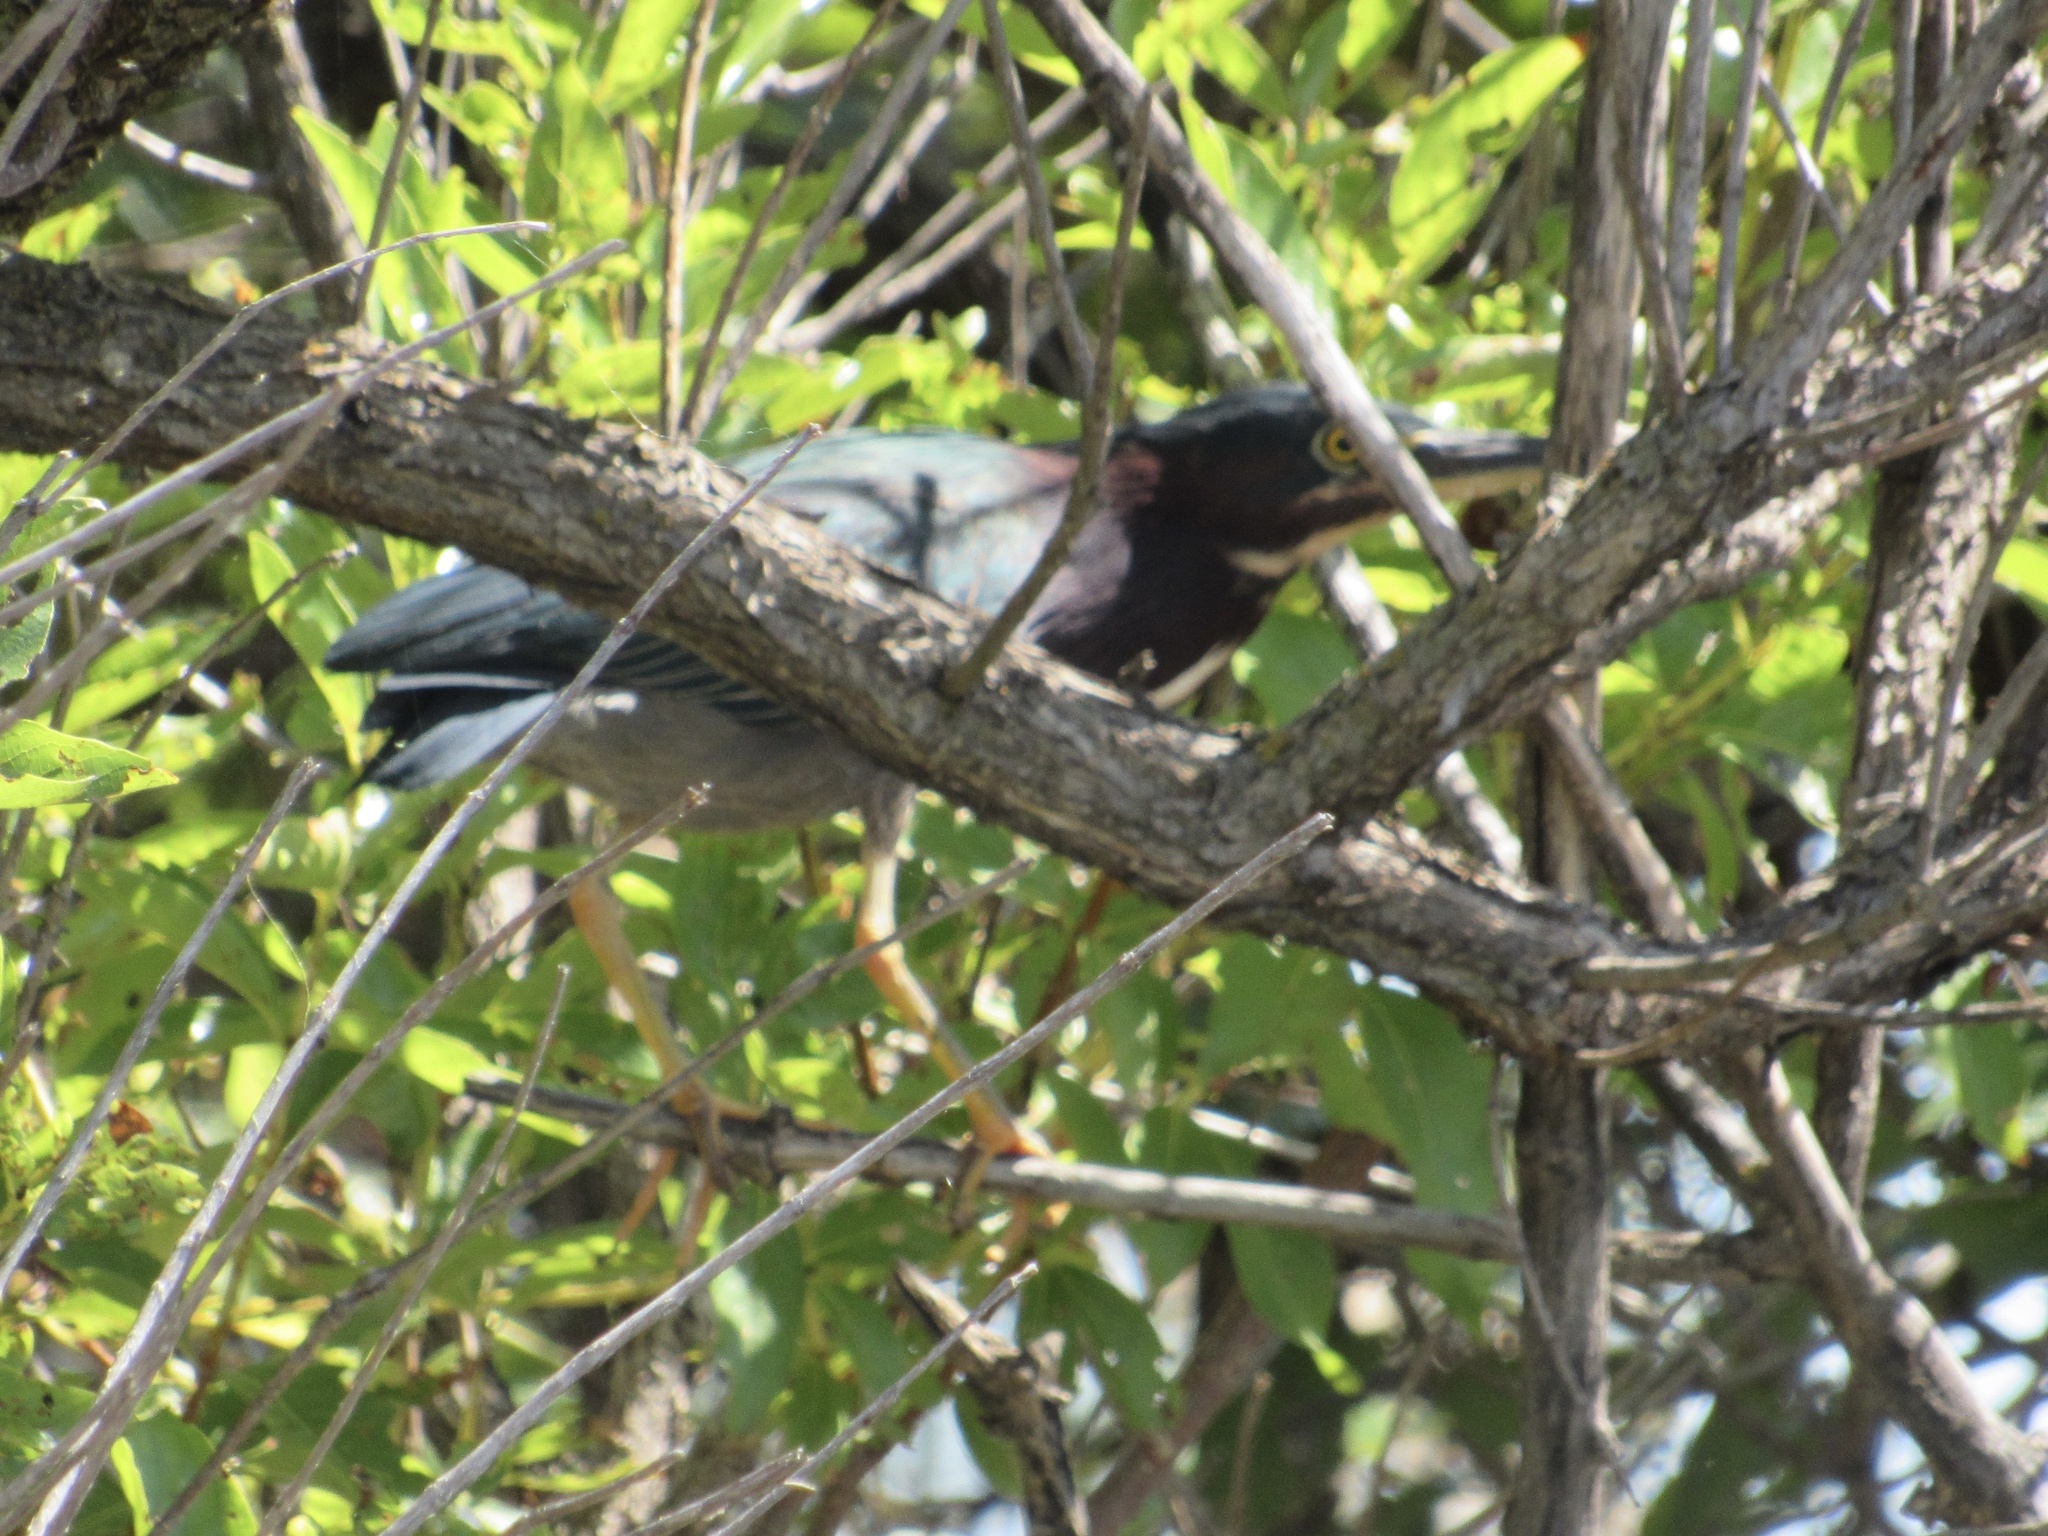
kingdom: Animalia
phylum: Chordata
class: Aves
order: Pelecaniformes
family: Ardeidae
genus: Butorides
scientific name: Butorides virescens
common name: Green heron
